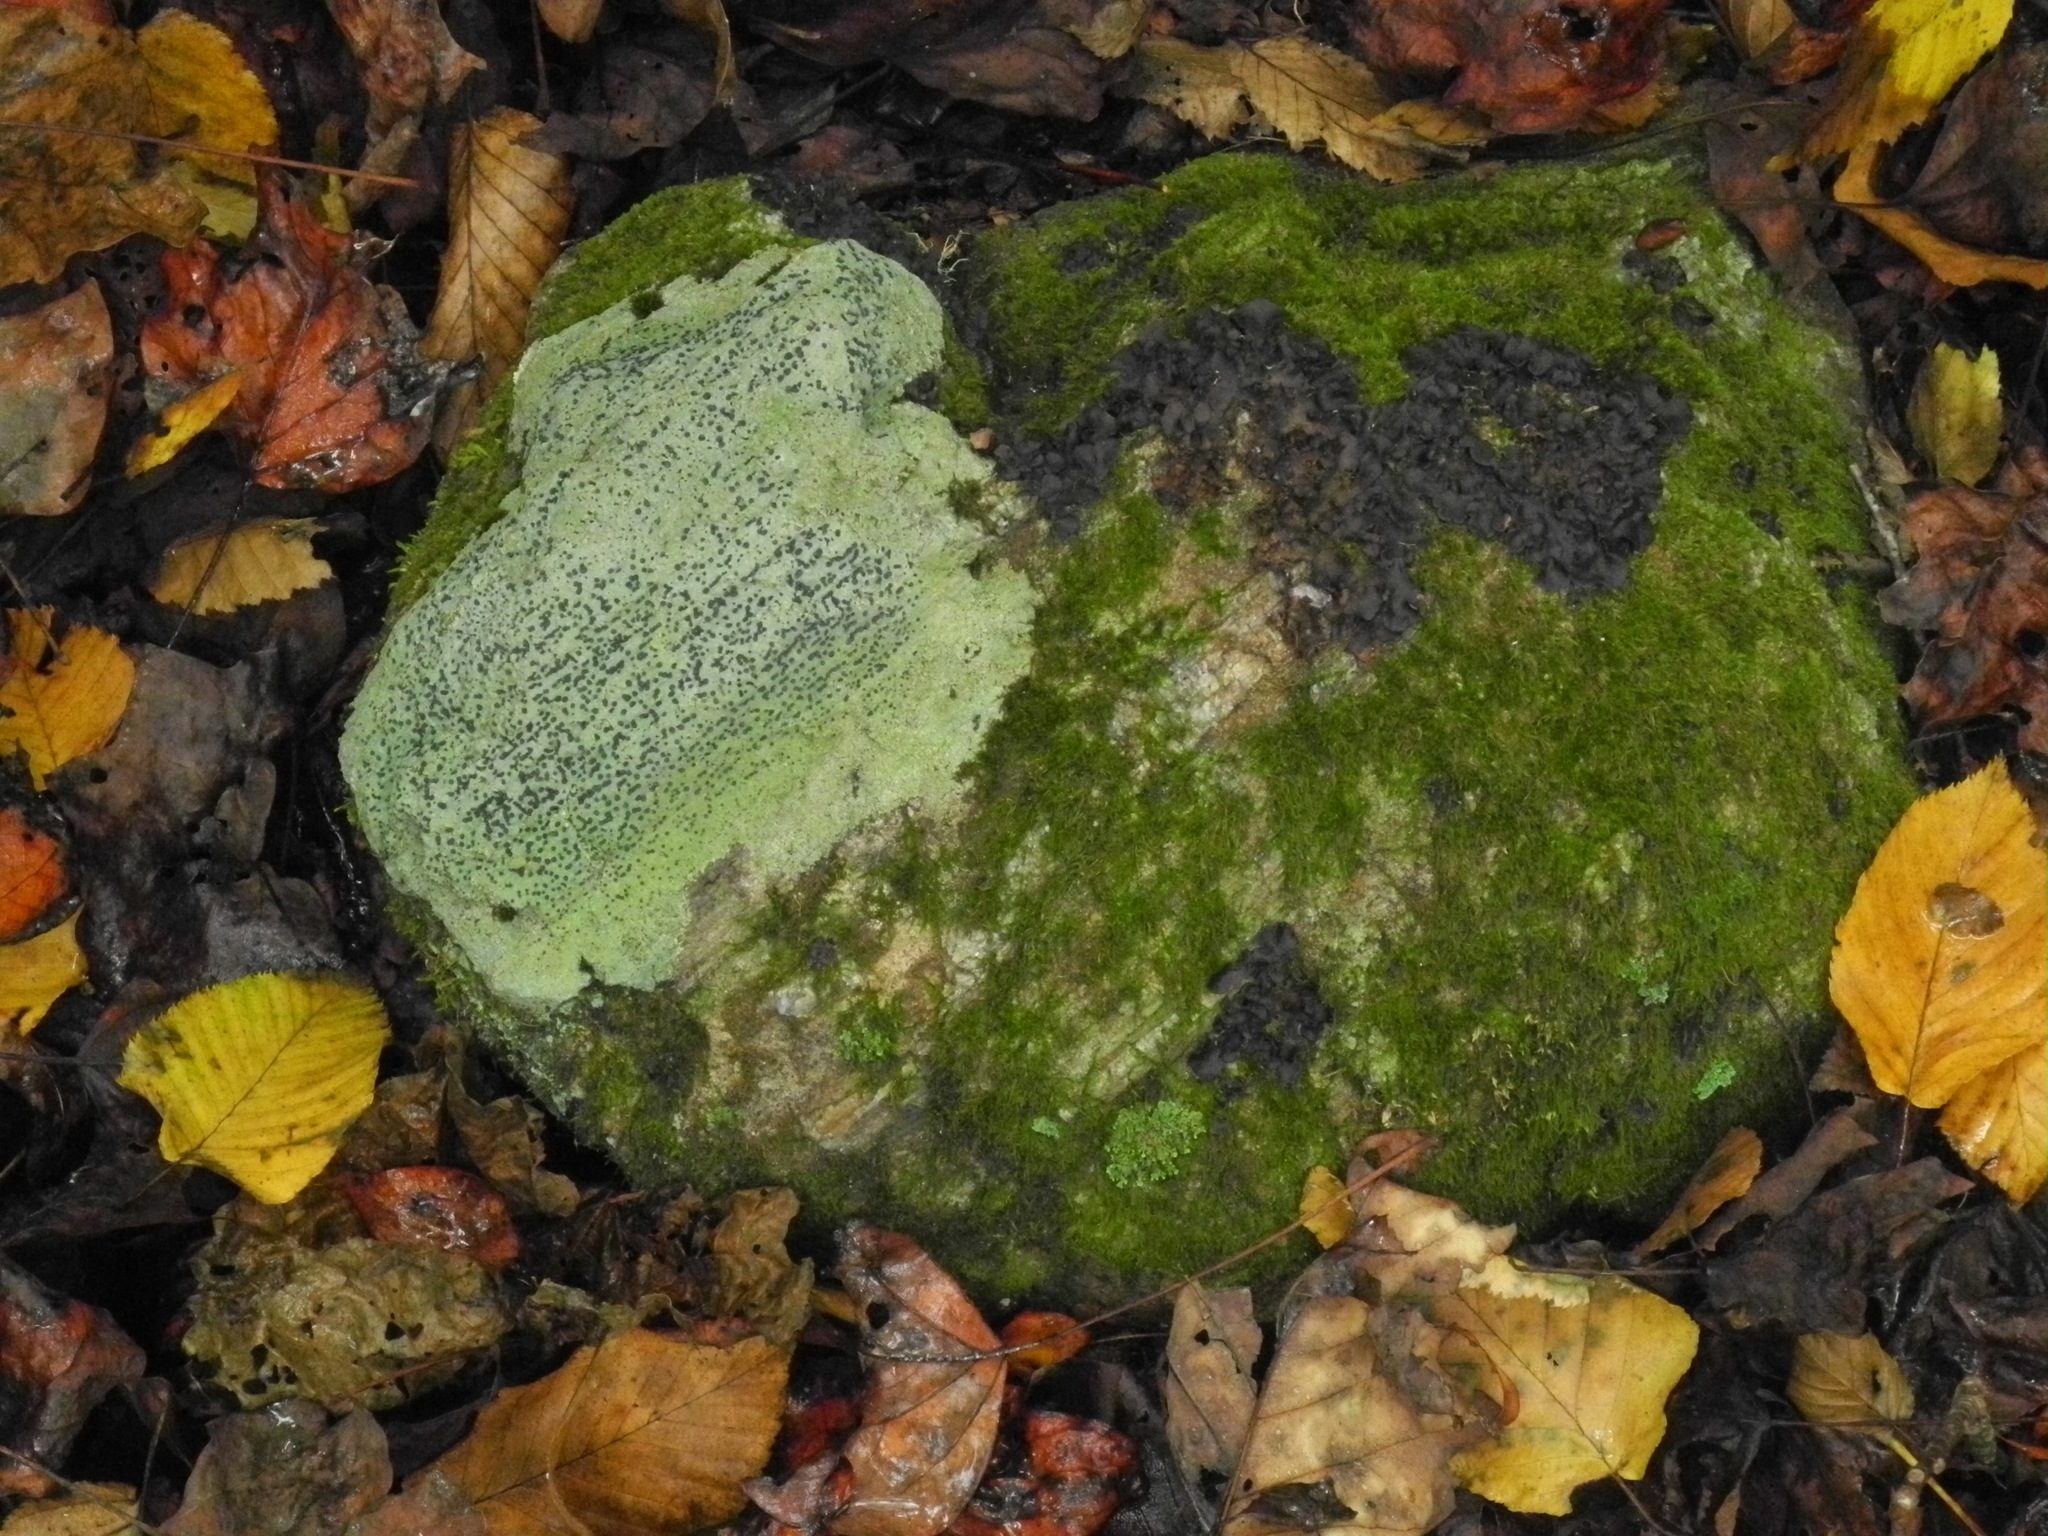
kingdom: Fungi
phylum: Ascomycota
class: Lecanoromycetes
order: Lecideales
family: Lecideaceae
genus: Porpidia
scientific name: Porpidia albocaerulescens
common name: Smokey-eyed boulder lichen
